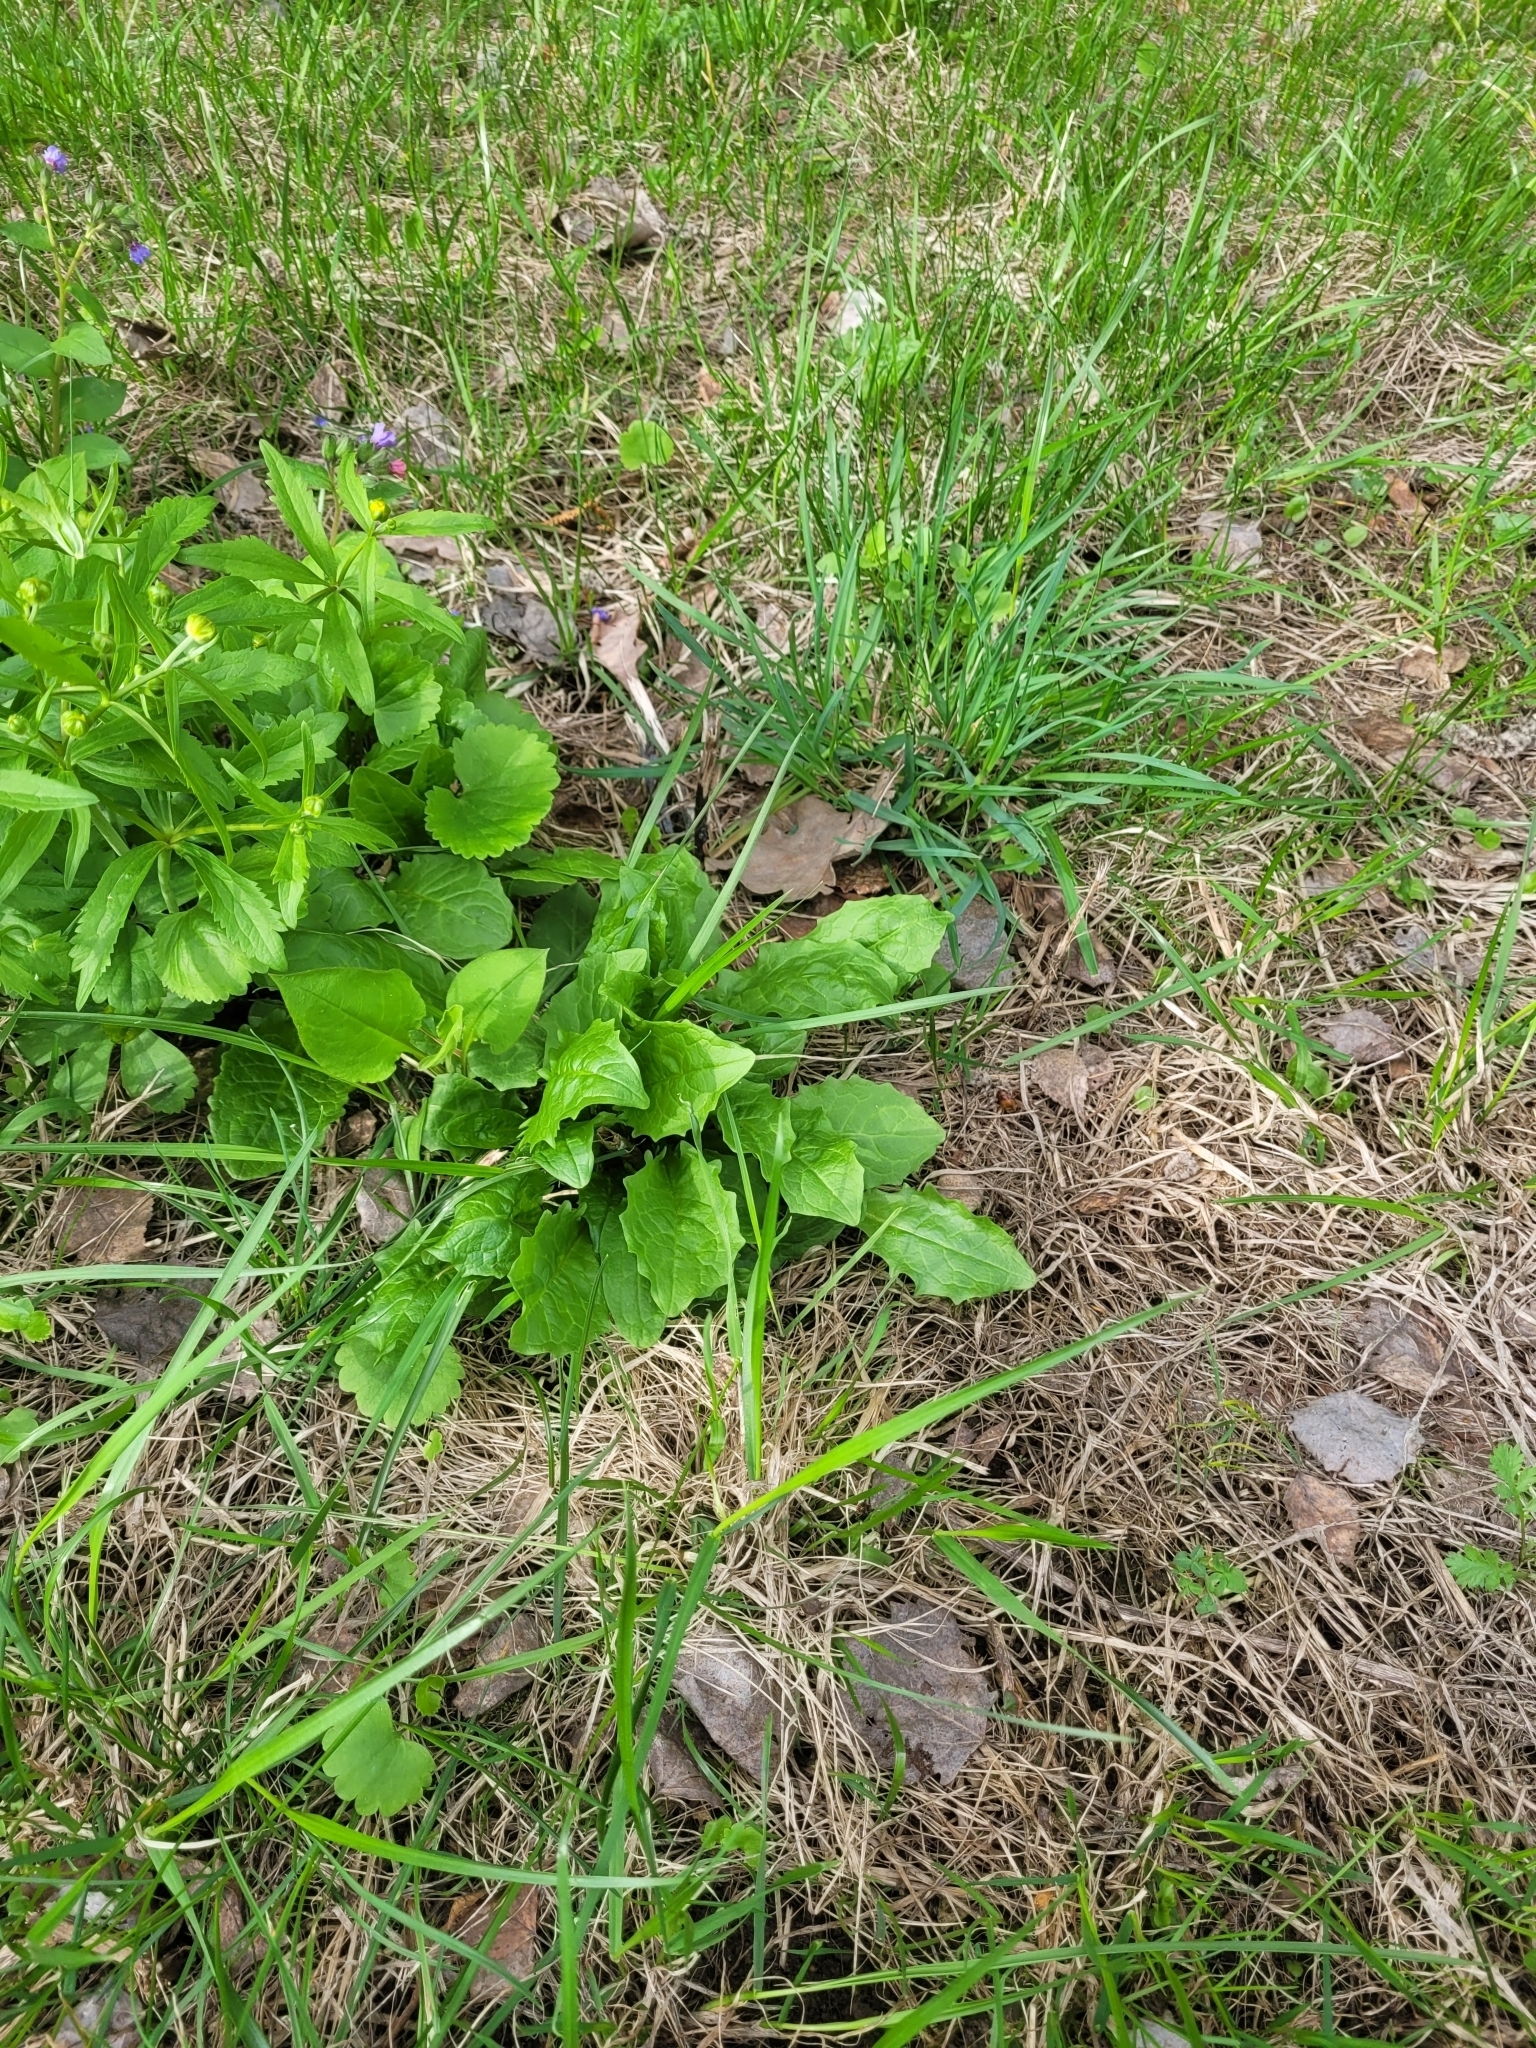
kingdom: Plantae
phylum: Tracheophyta
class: Magnoliopsida
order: Asterales
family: Asteraceae
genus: Crepis
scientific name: Crepis paludosa
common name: Marsh hawk's-beard
